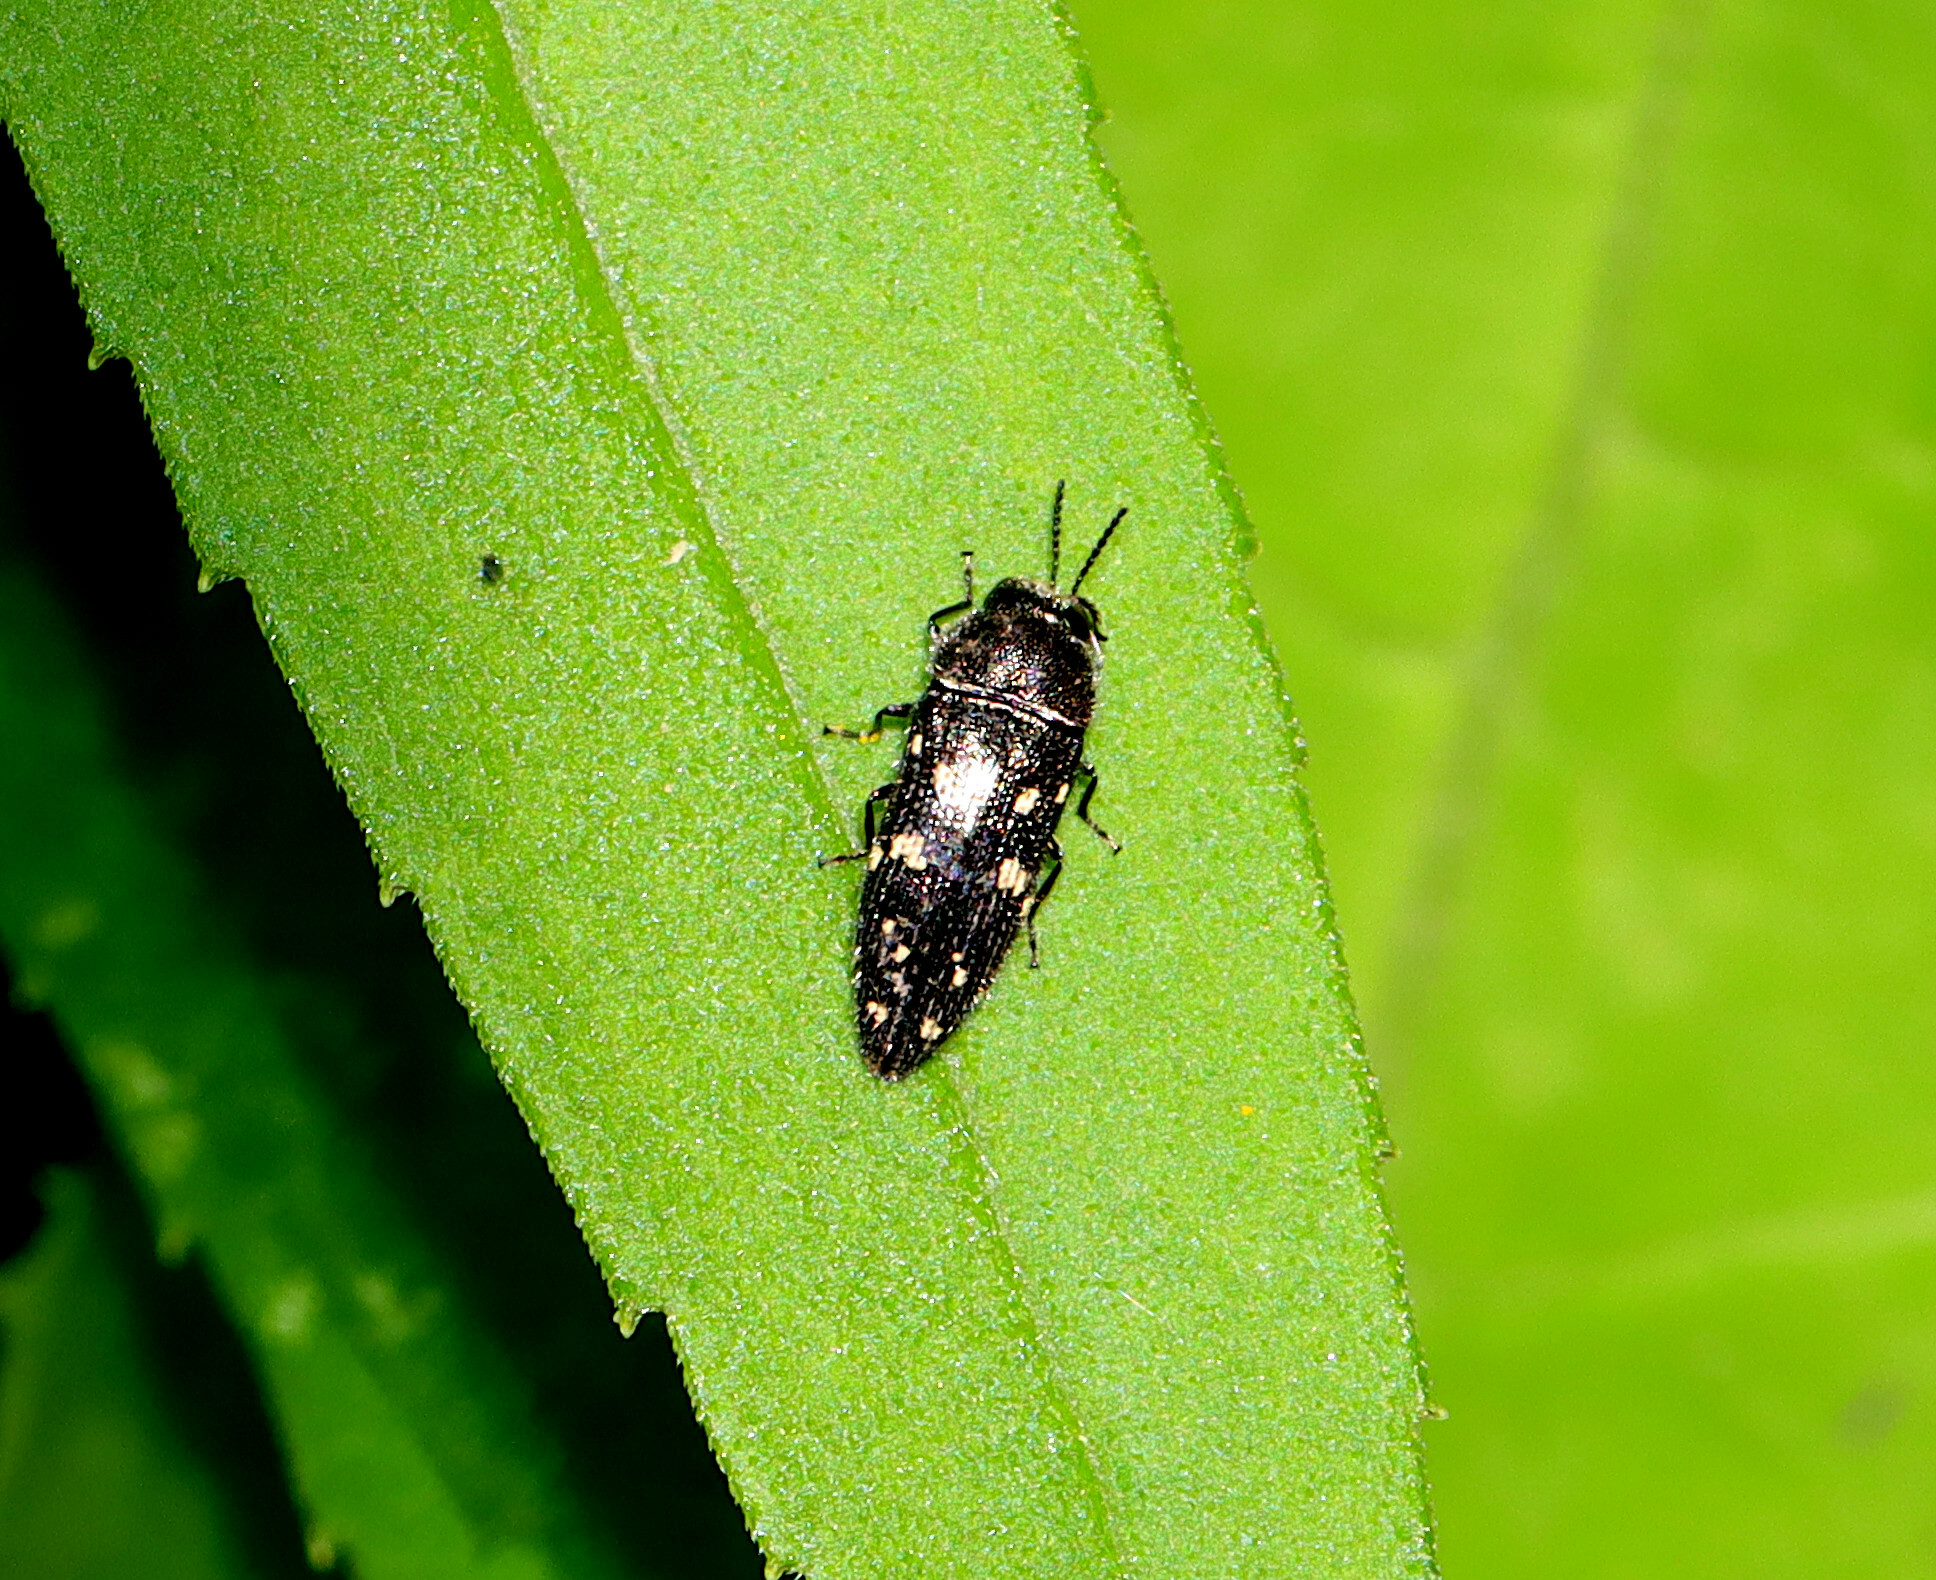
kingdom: Animalia
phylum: Arthropoda
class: Insecta
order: Coleoptera
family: Buprestidae
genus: Acmaeodera
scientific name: Acmaeodera tubulus
